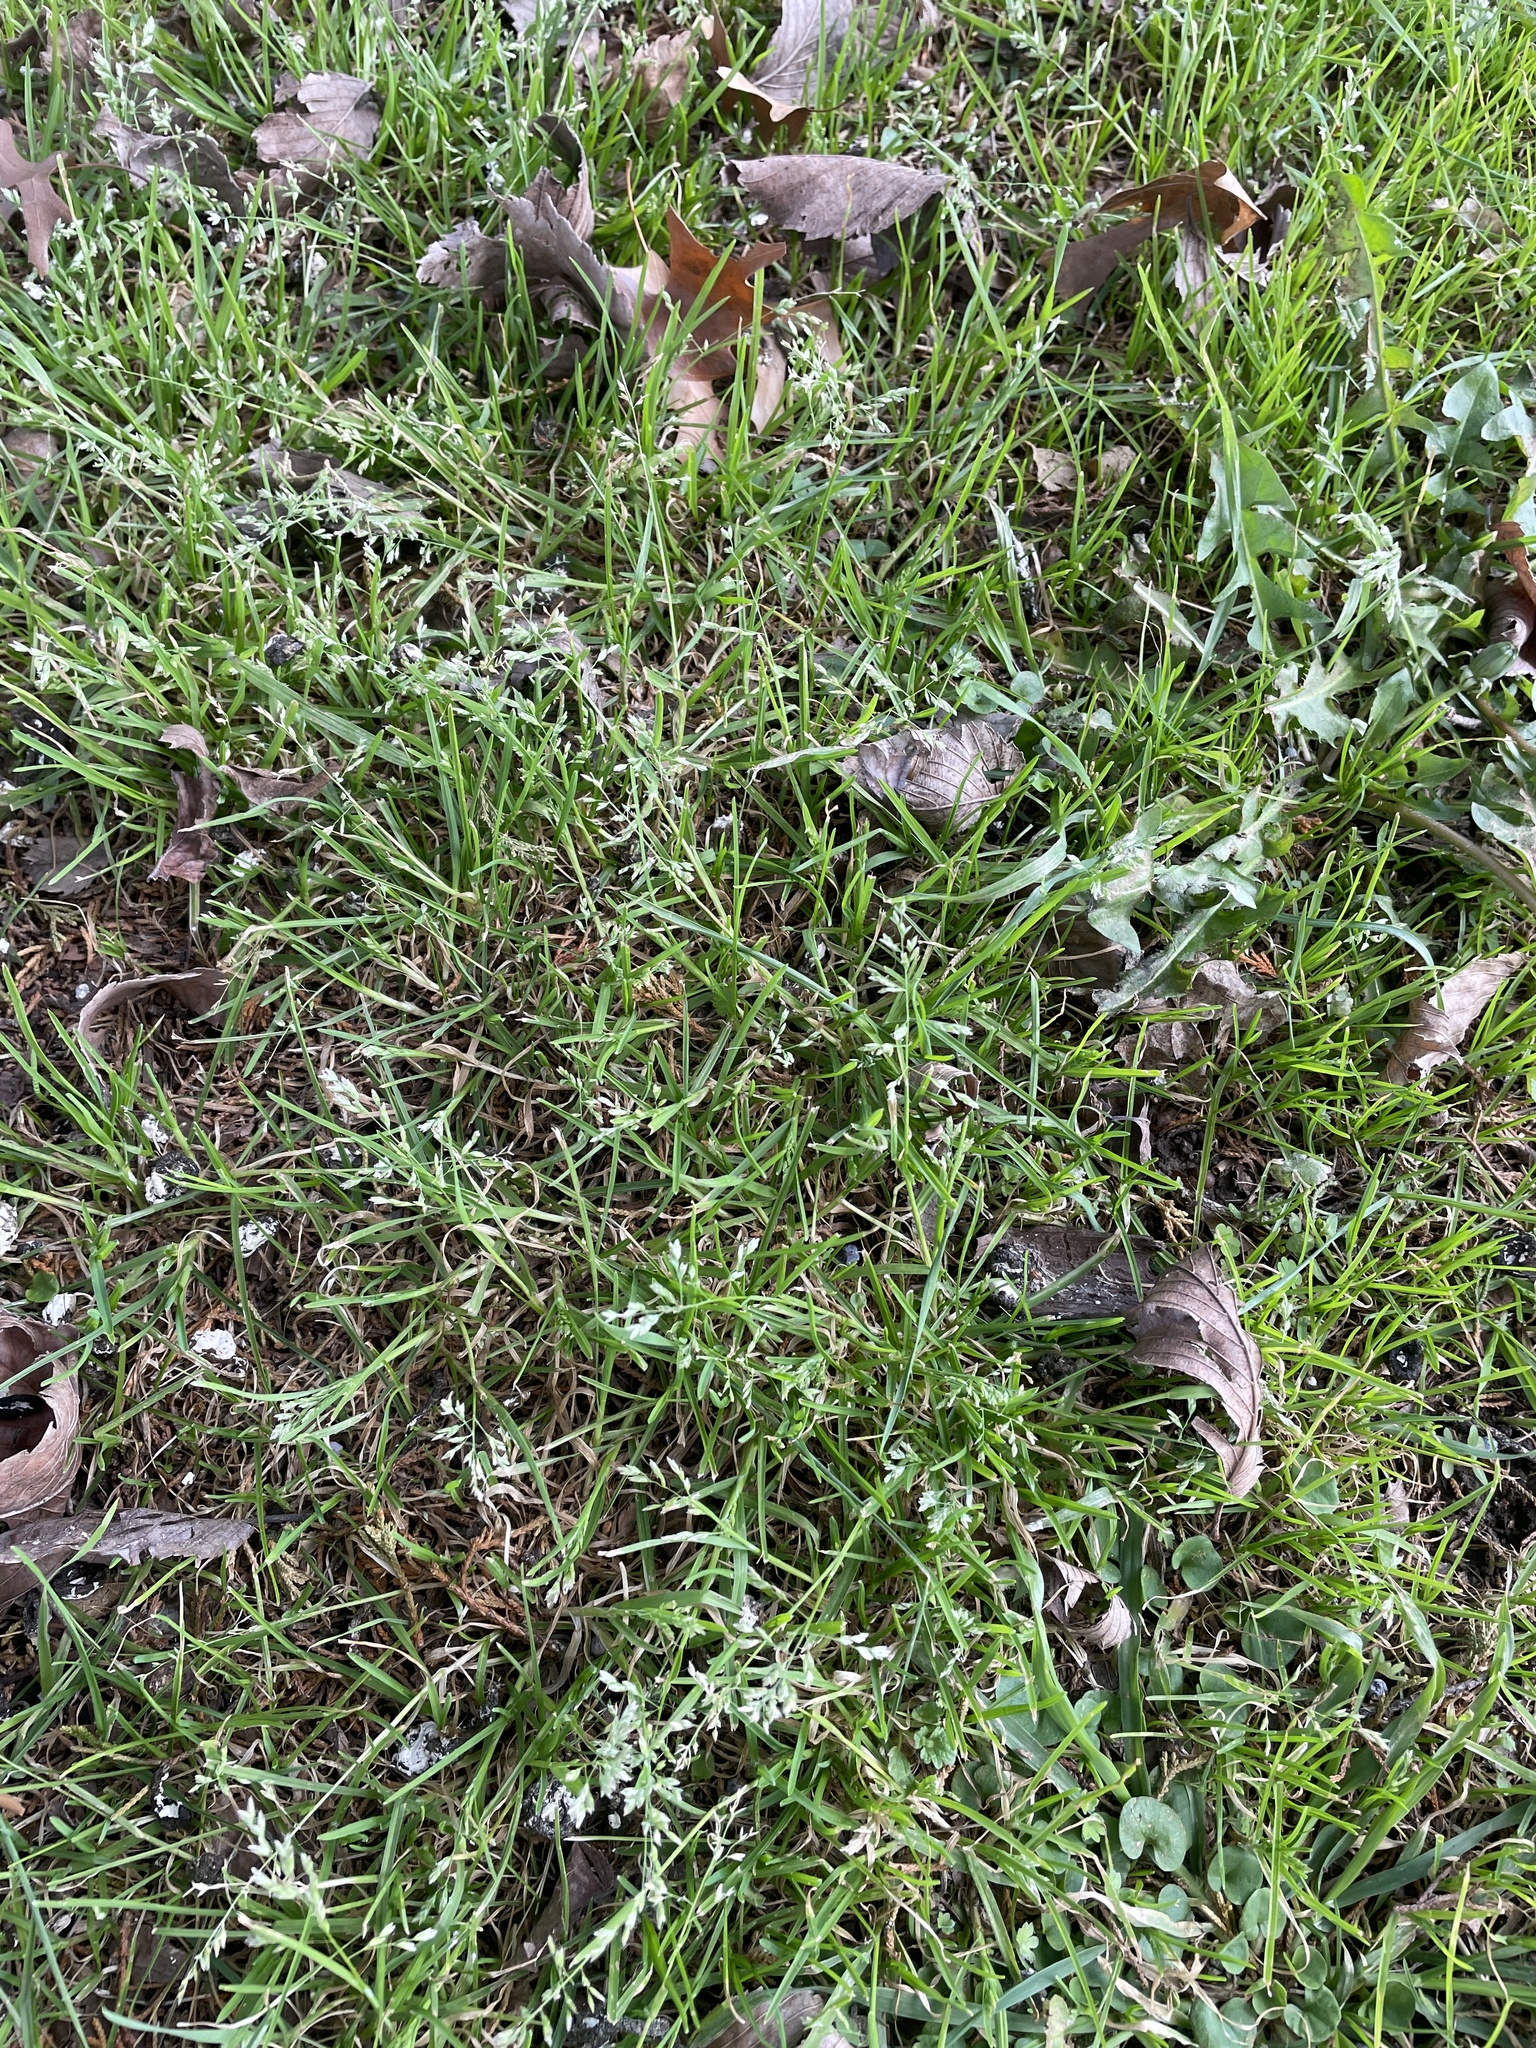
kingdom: Plantae
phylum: Tracheophyta
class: Liliopsida
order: Poales
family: Poaceae
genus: Poa
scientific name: Poa annua
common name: Annual bluegrass
